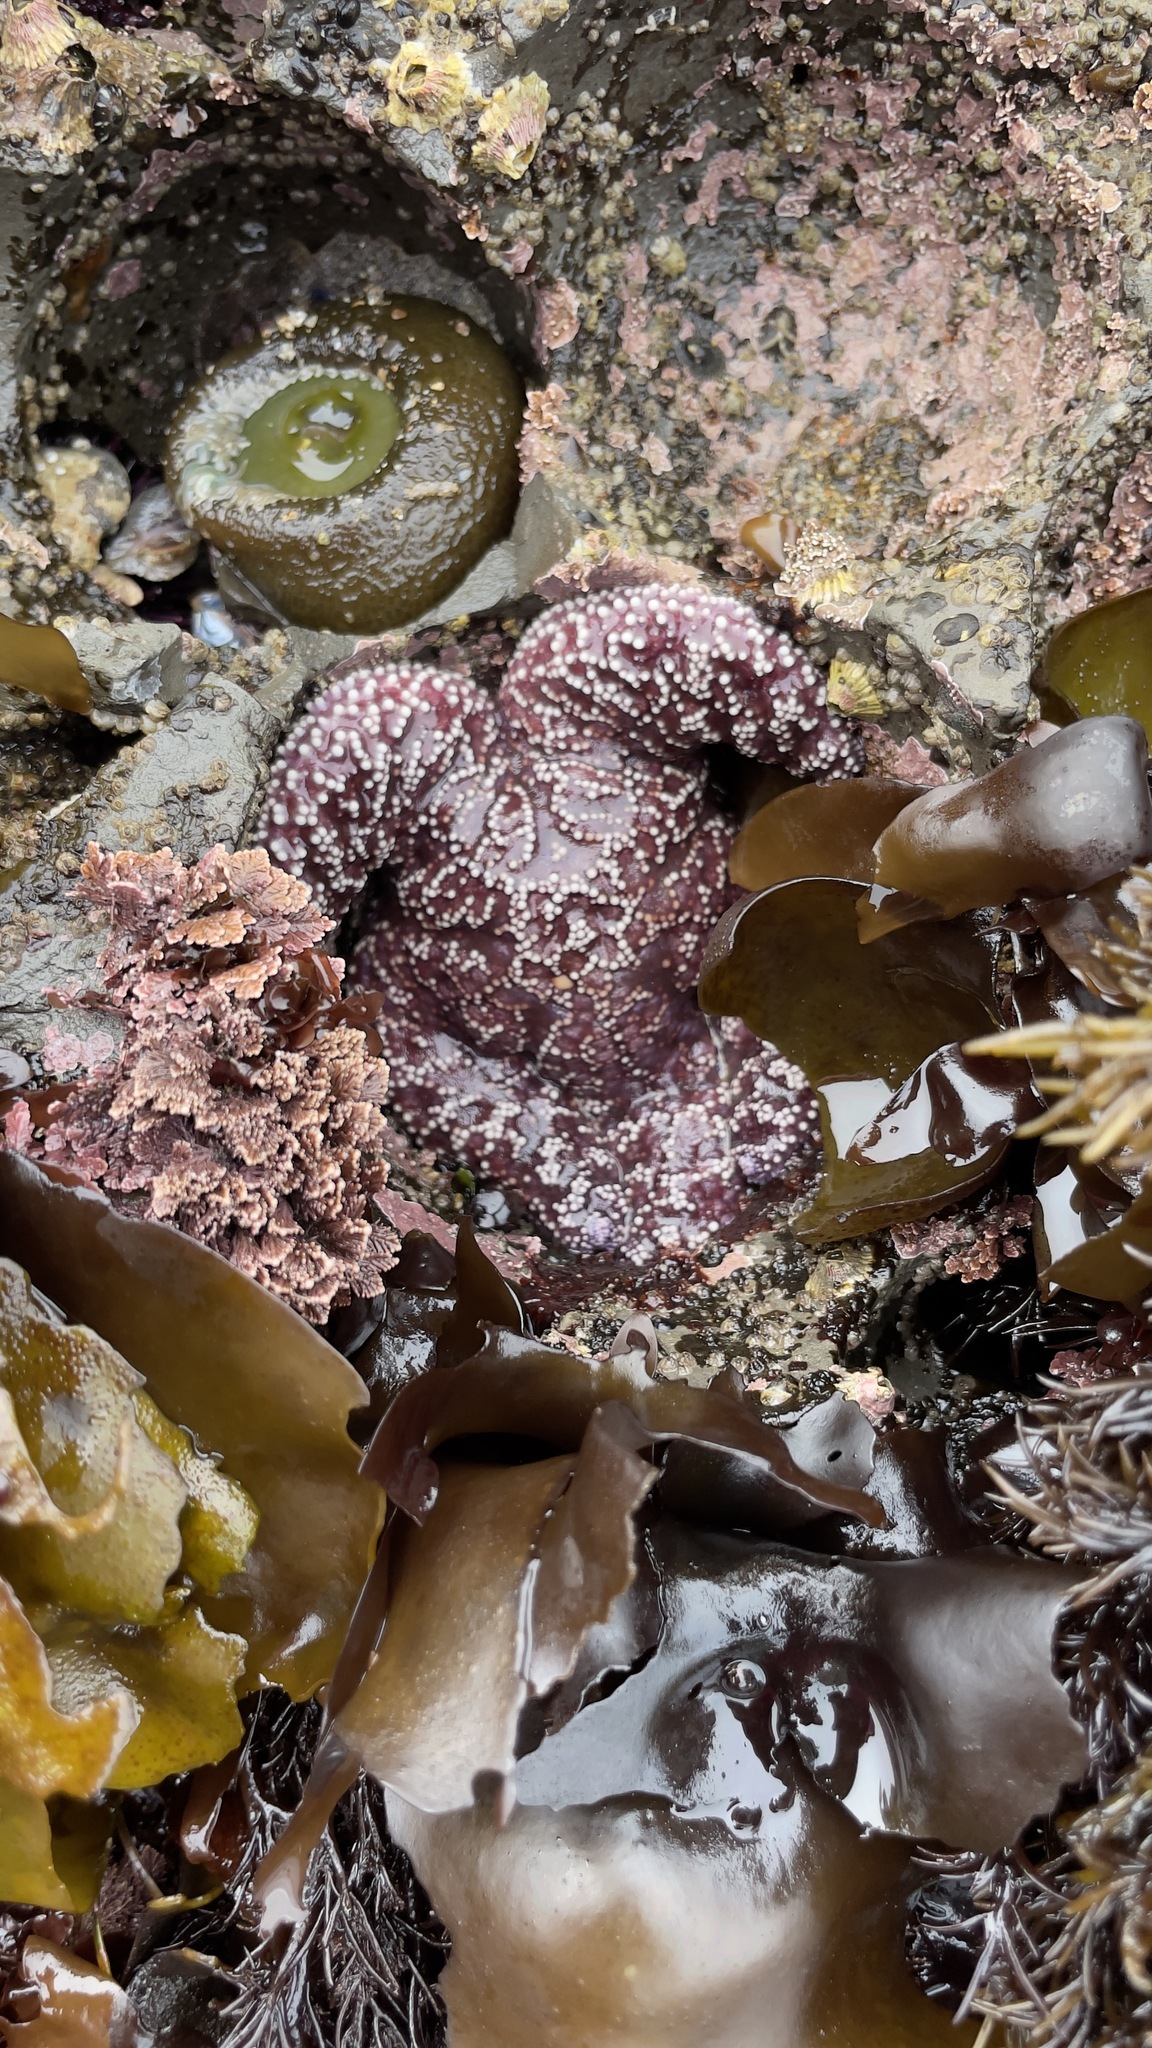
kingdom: Animalia
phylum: Echinodermata
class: Asteroidea
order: Forcipulatida
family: Asteriidae
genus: Pisaster
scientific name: Pisaster ochraceus
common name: Ochre stars
